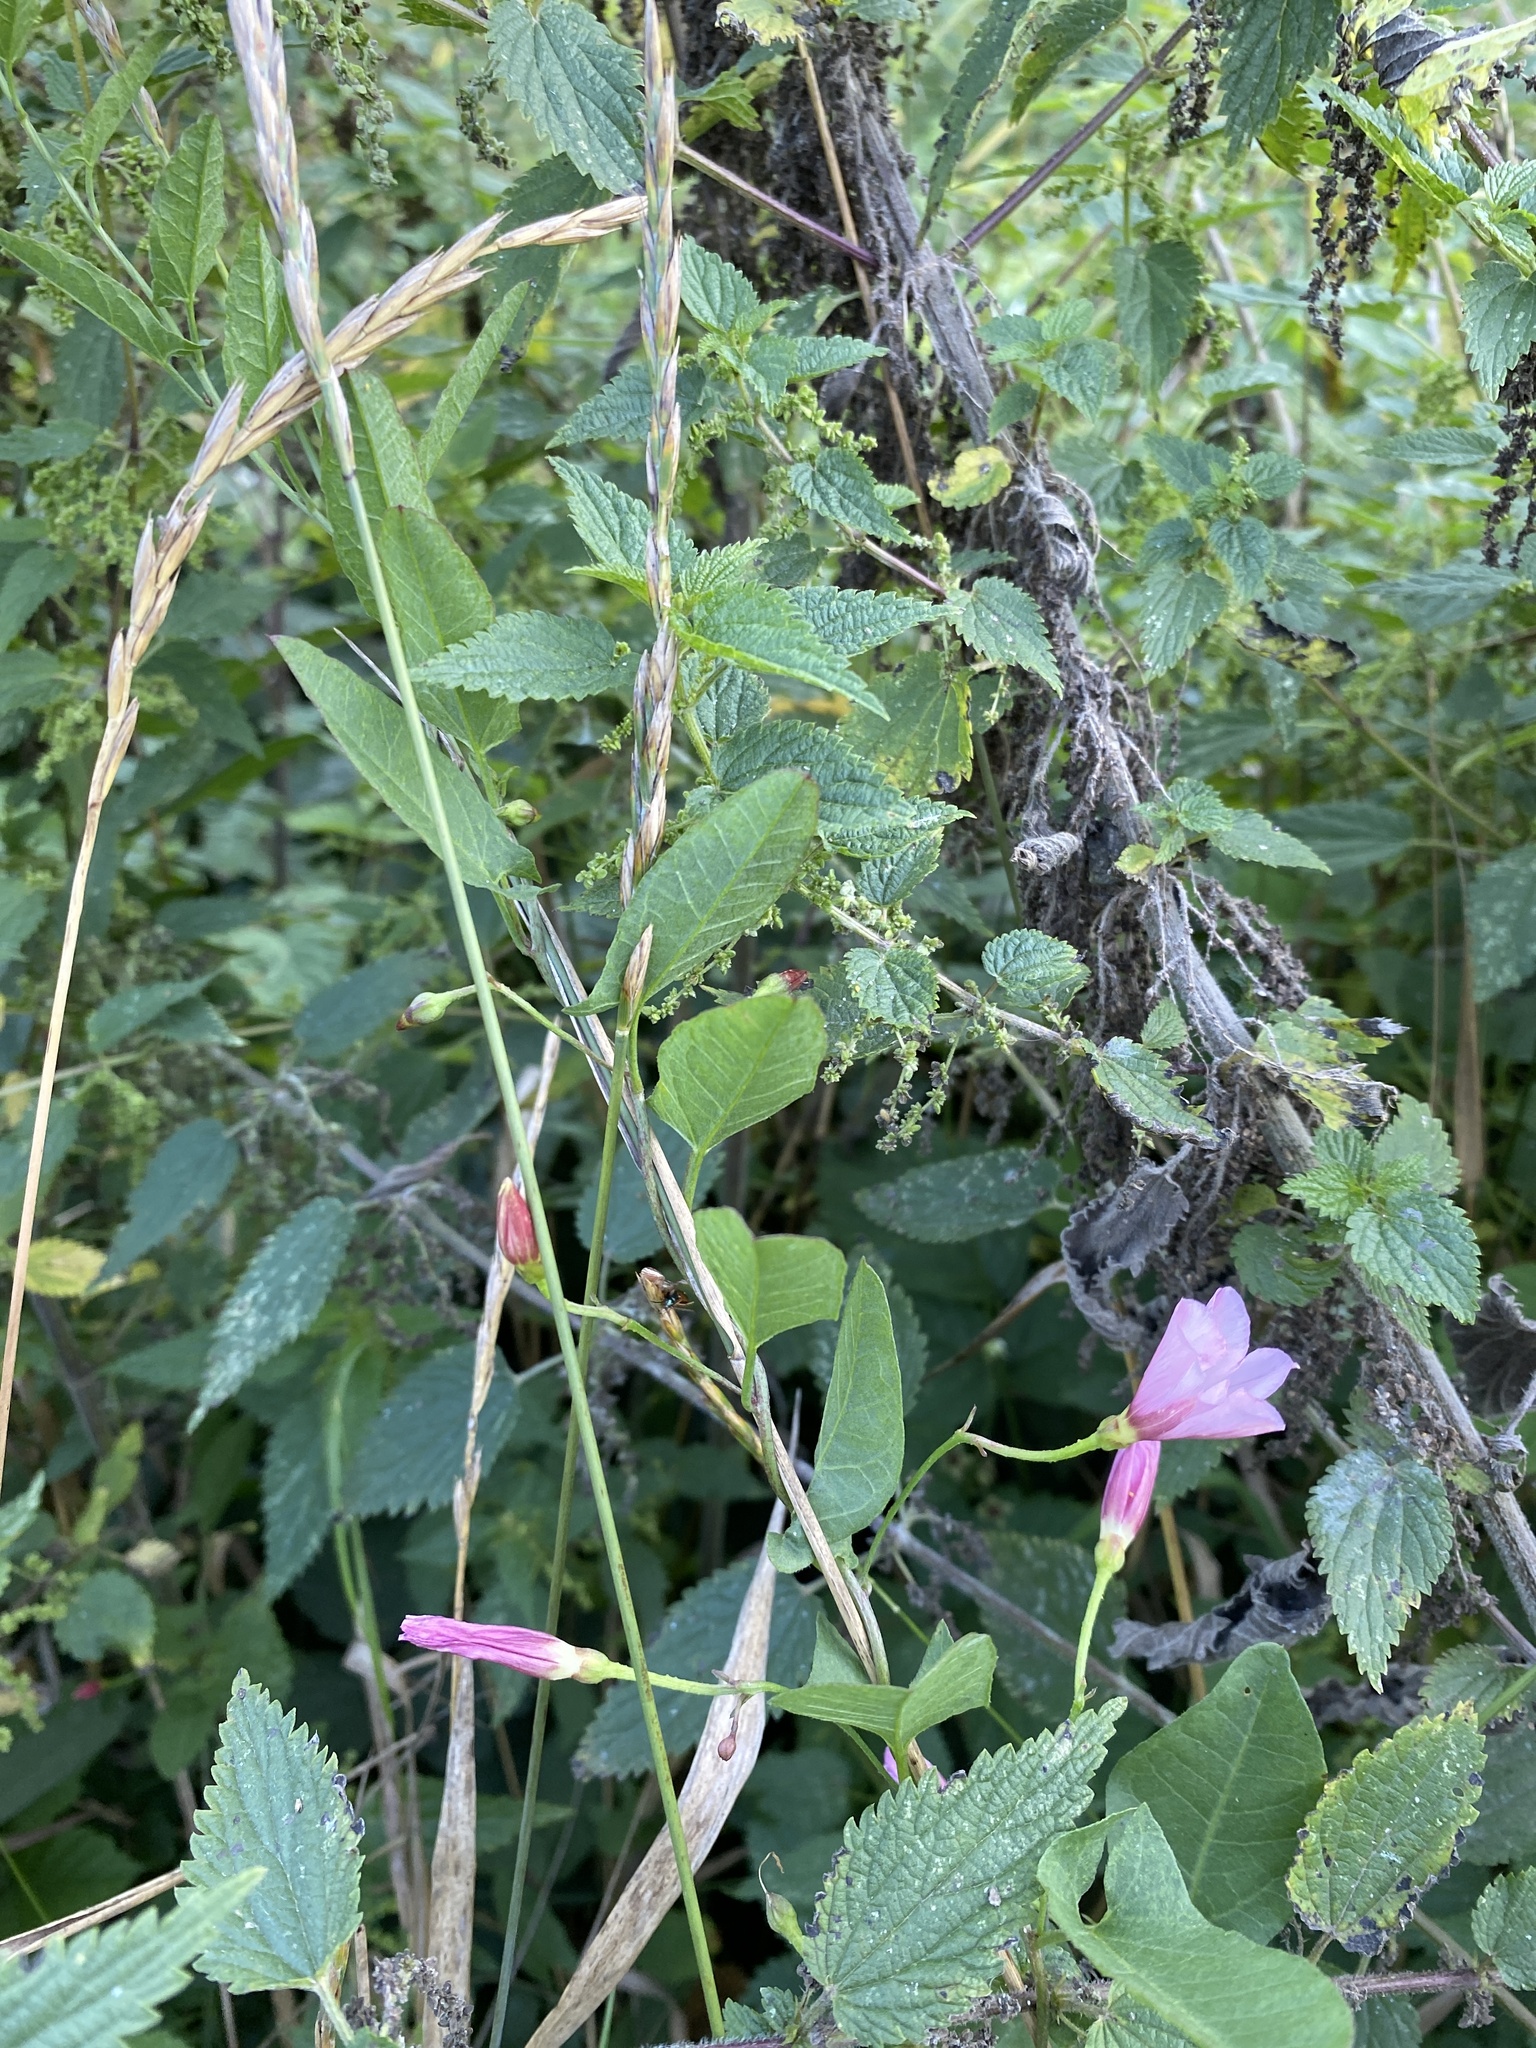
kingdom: Plantae
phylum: Tracheophyta
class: Magnoliopsida
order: Solanales
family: Convolvulaceae
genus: Convolvulus
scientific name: Convolvulus arvensis
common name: Field bindweed
